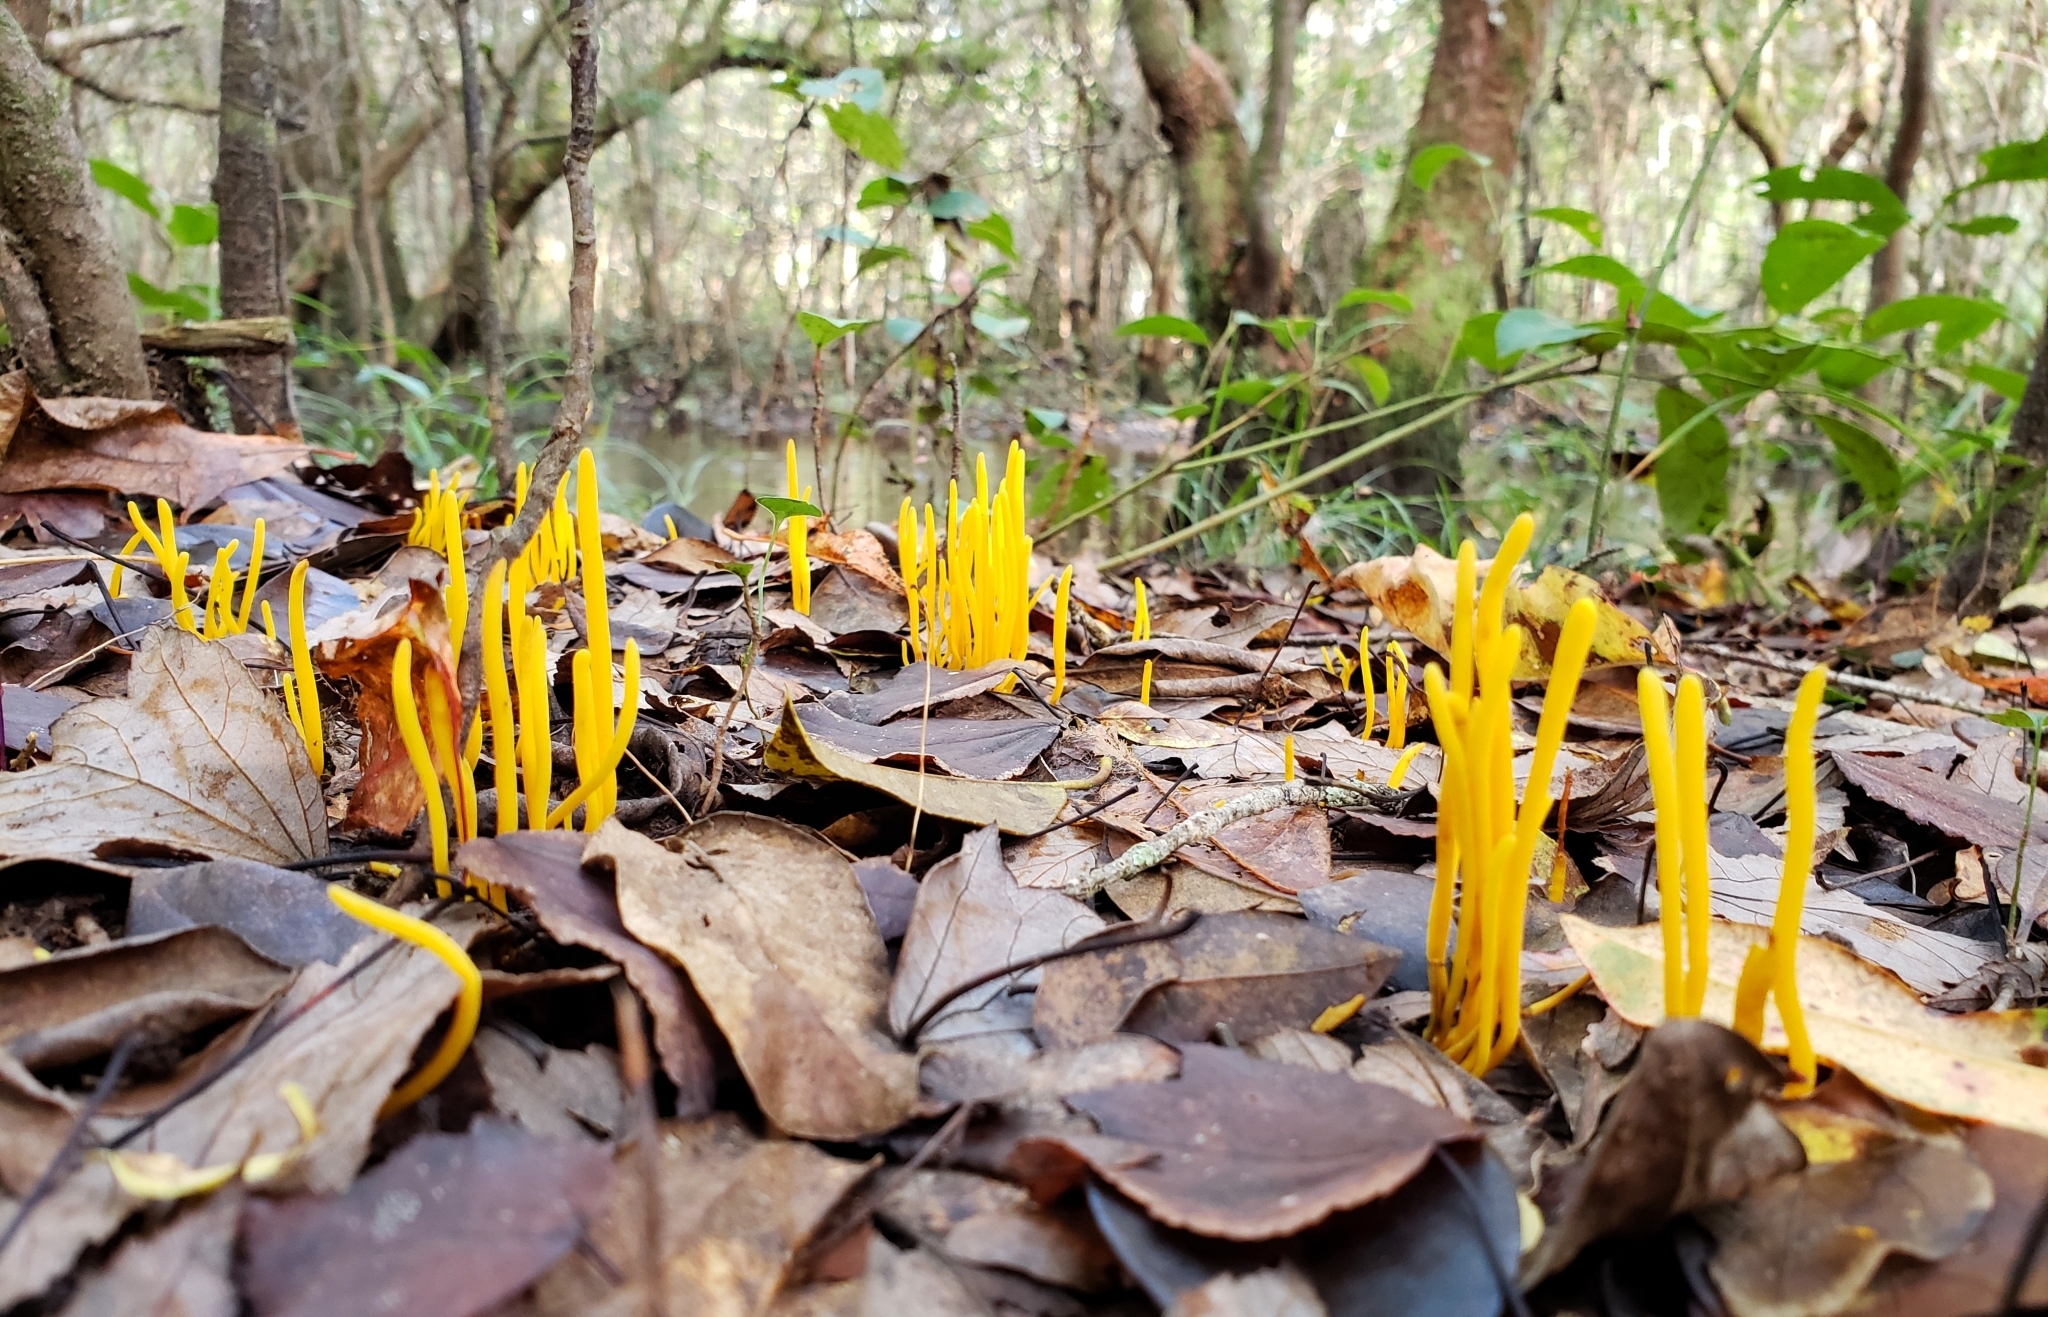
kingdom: Fungi
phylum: Basidiomycota
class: Agaricomycetes
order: Agaricales
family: Clavariaceae
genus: Clavulinopsis
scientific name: Clavulinopsis fusiformis
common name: Golden spindles
